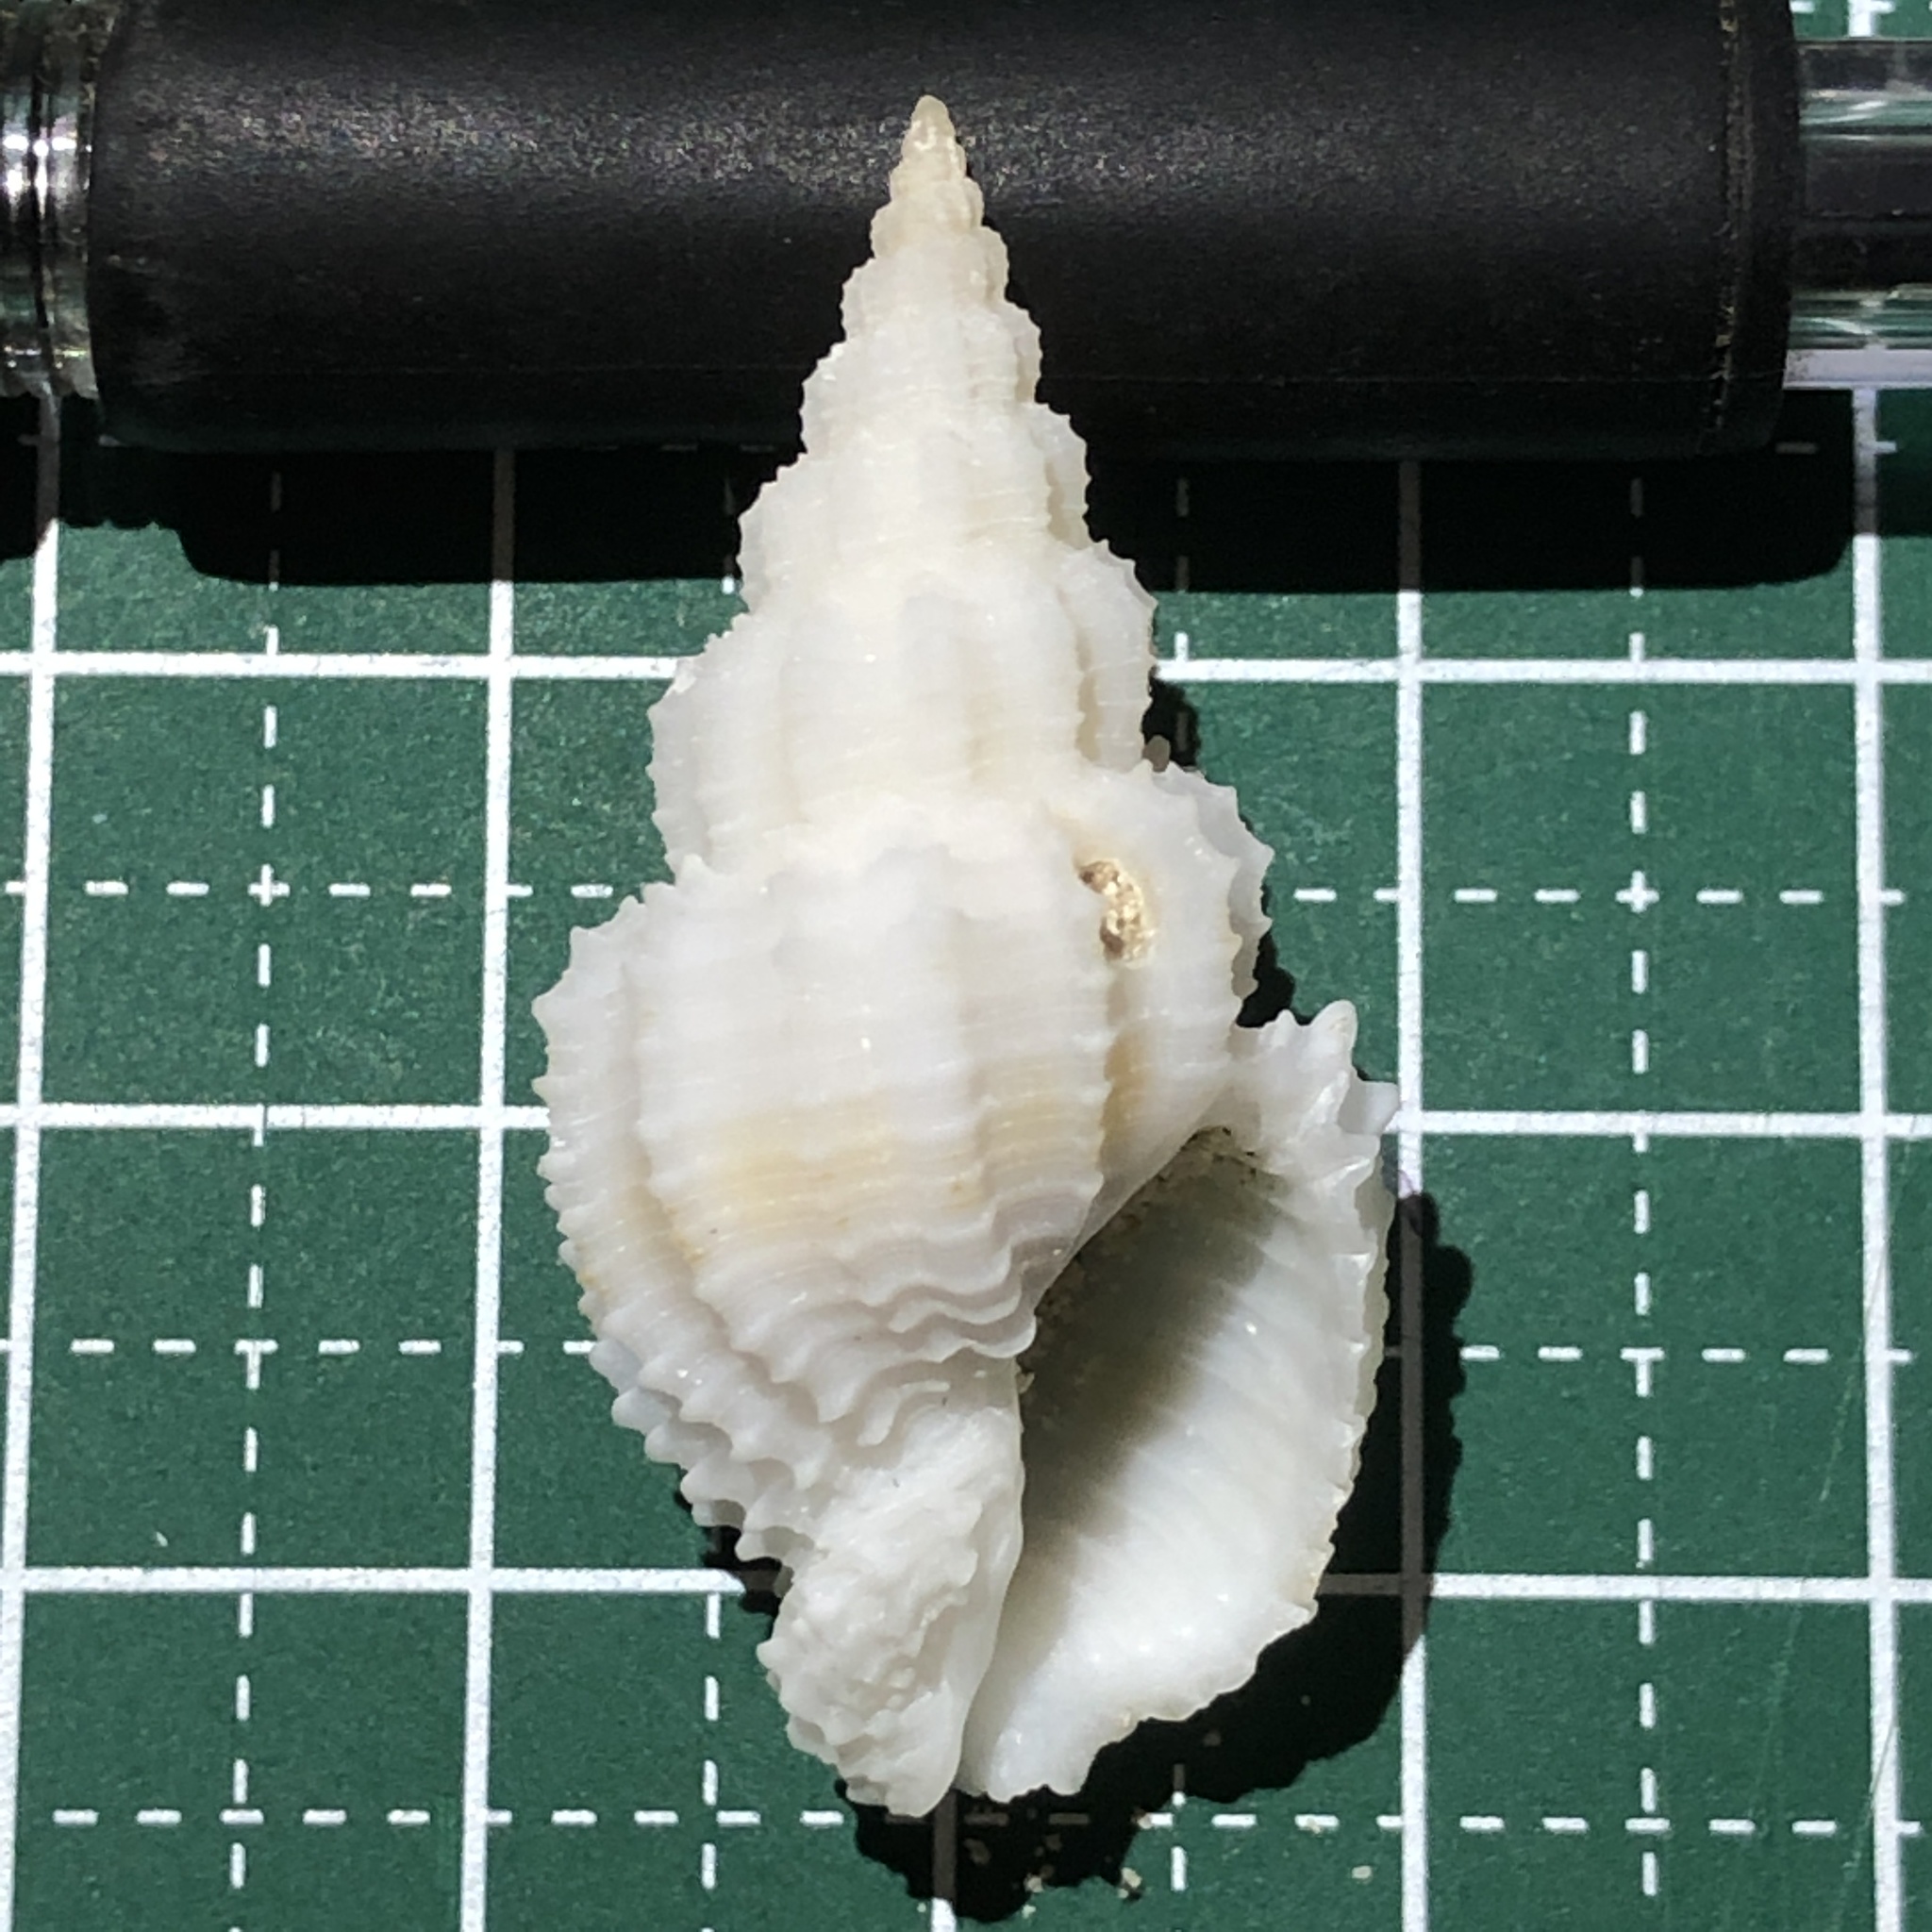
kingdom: Animalia
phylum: Mollusca
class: Gastropoda
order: Neogastropoda
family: Nassariidae
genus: Phos
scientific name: Phos senticosus
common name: Common pacific phos
